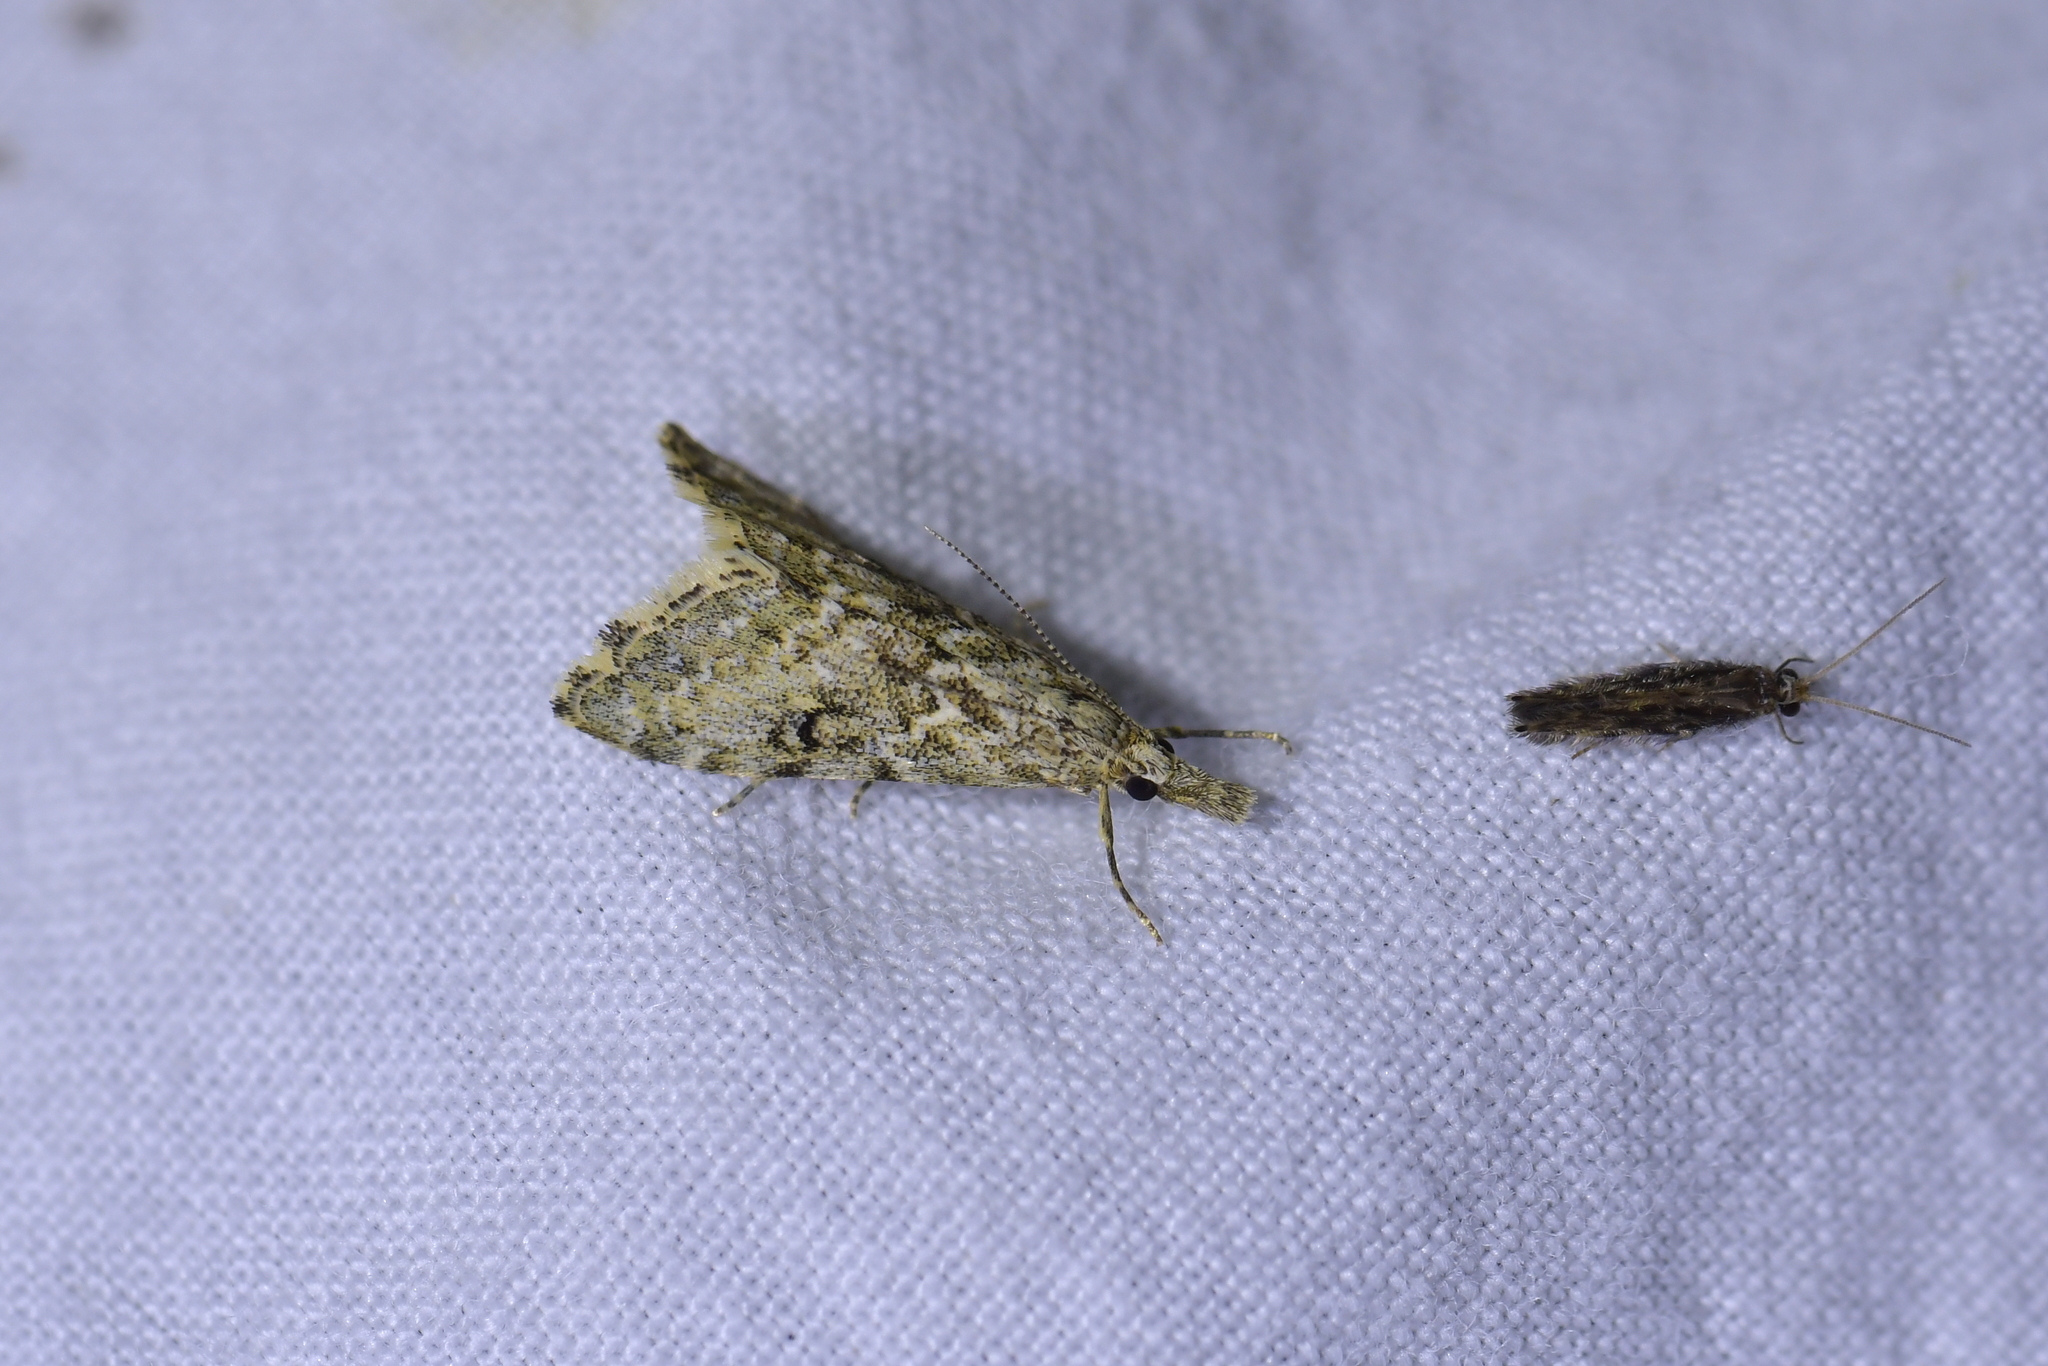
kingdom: Animalia
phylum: Arthropoda
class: Insecta
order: Lepidoptera
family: Crambidae
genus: Glaucocharis
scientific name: Glaucocharis elaina
